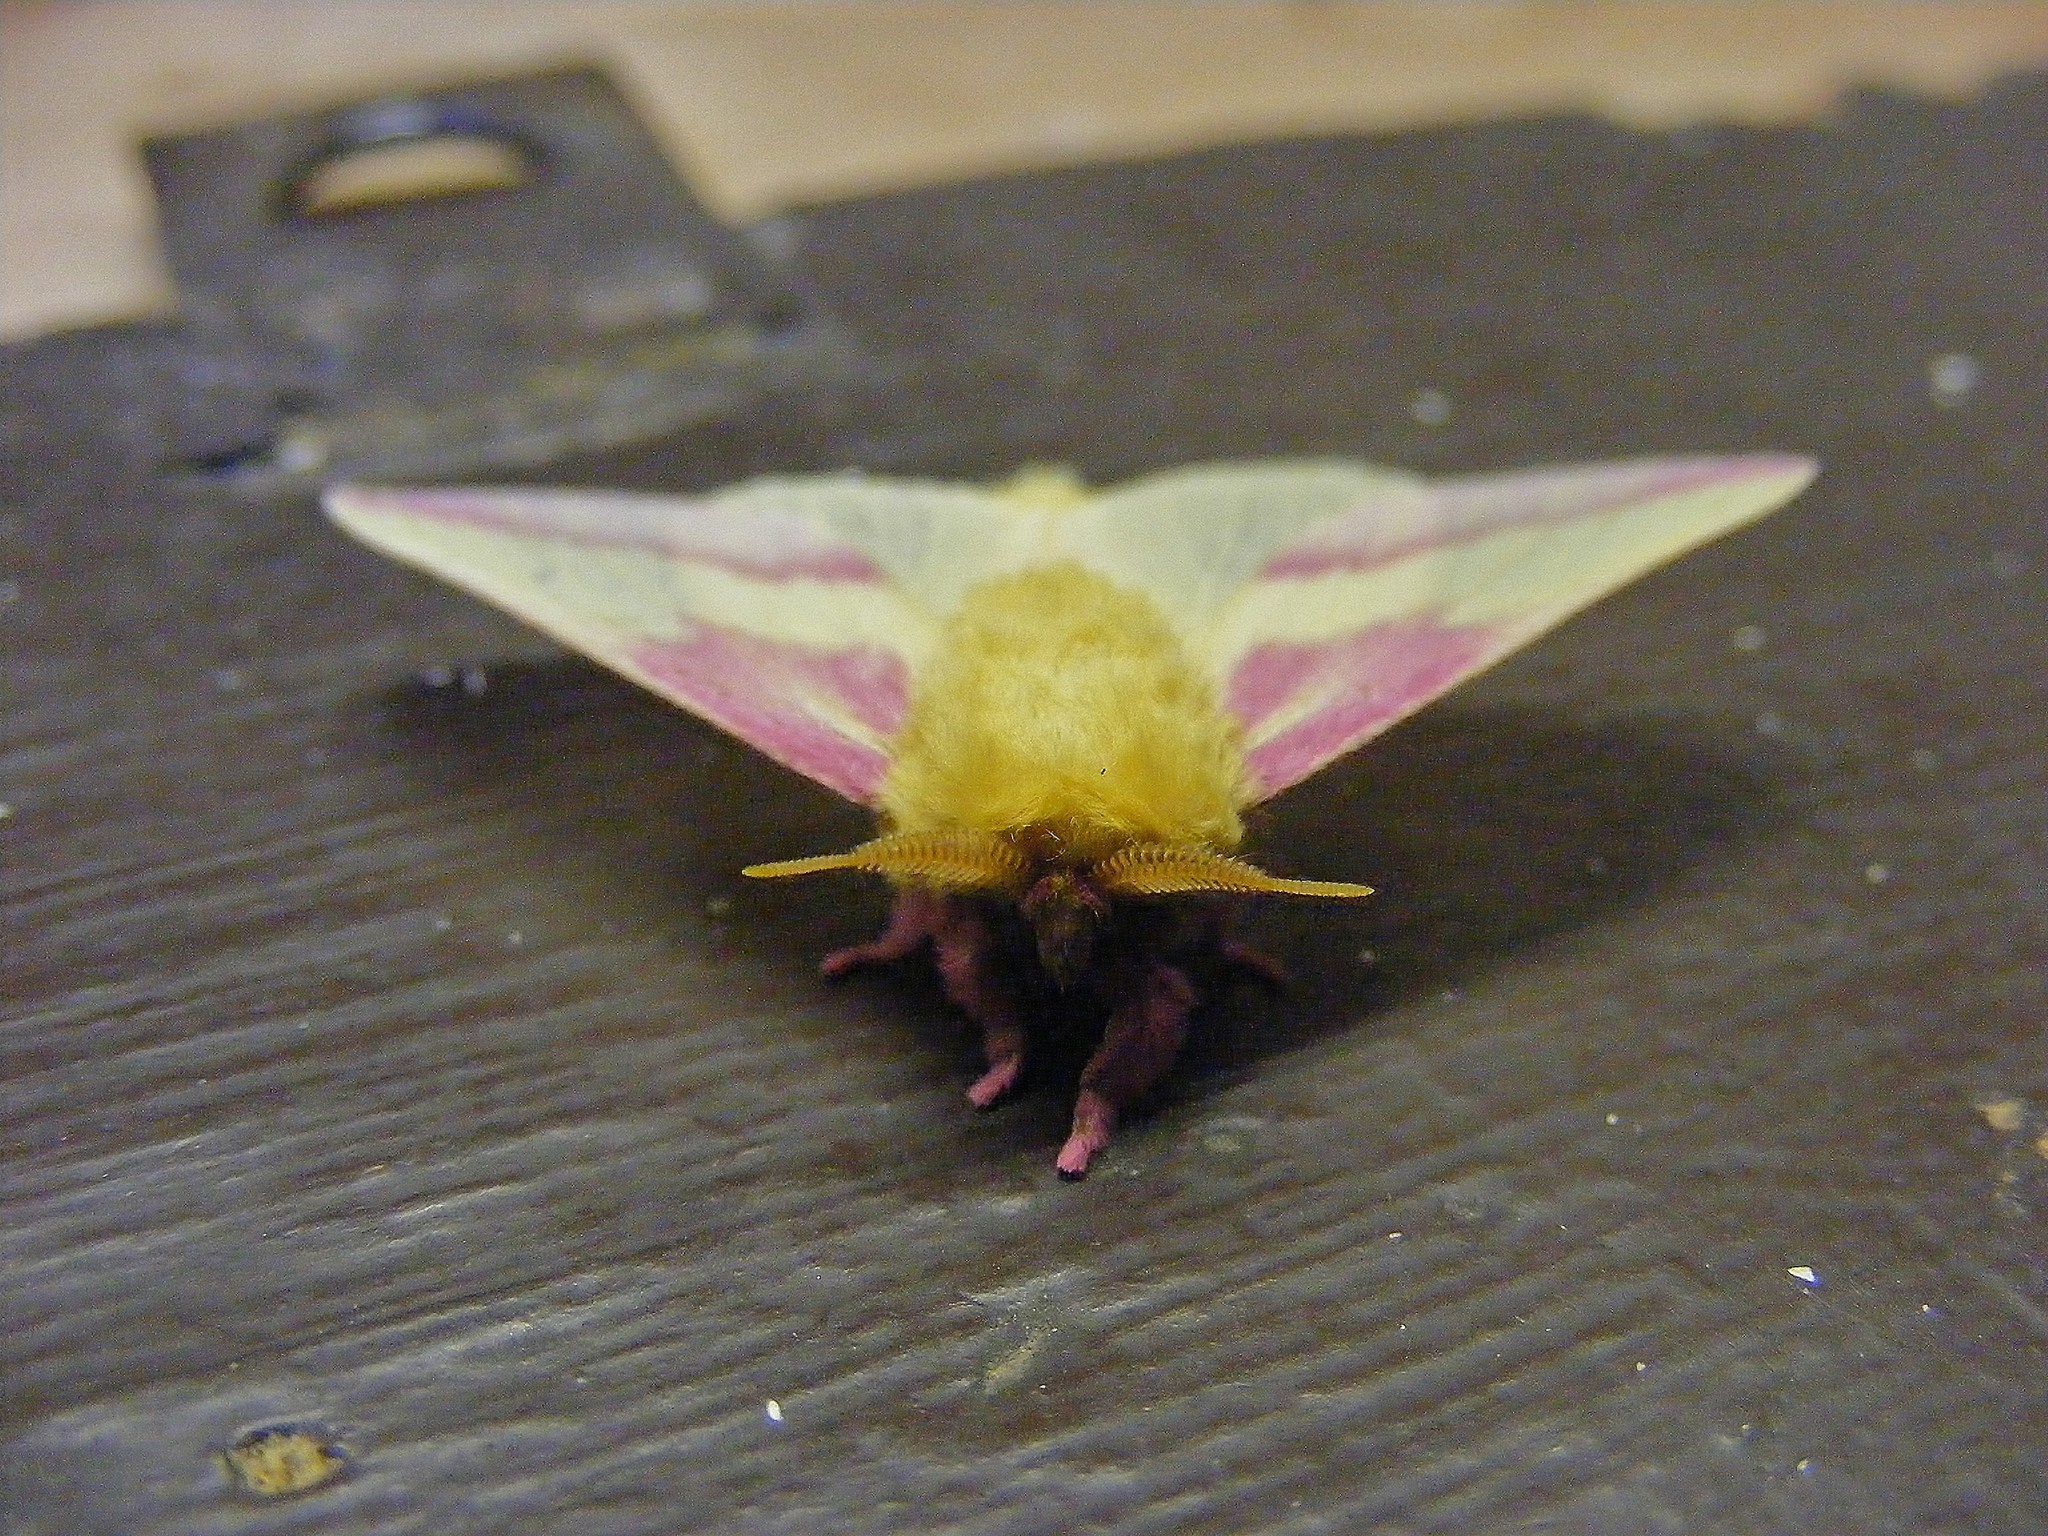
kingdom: Animalia
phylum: Arthropoda
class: Insecta
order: Lepidoptera
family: Saturniidae
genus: Dryocampa
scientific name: Dryocampa rubicunda
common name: Rosy maple moth
